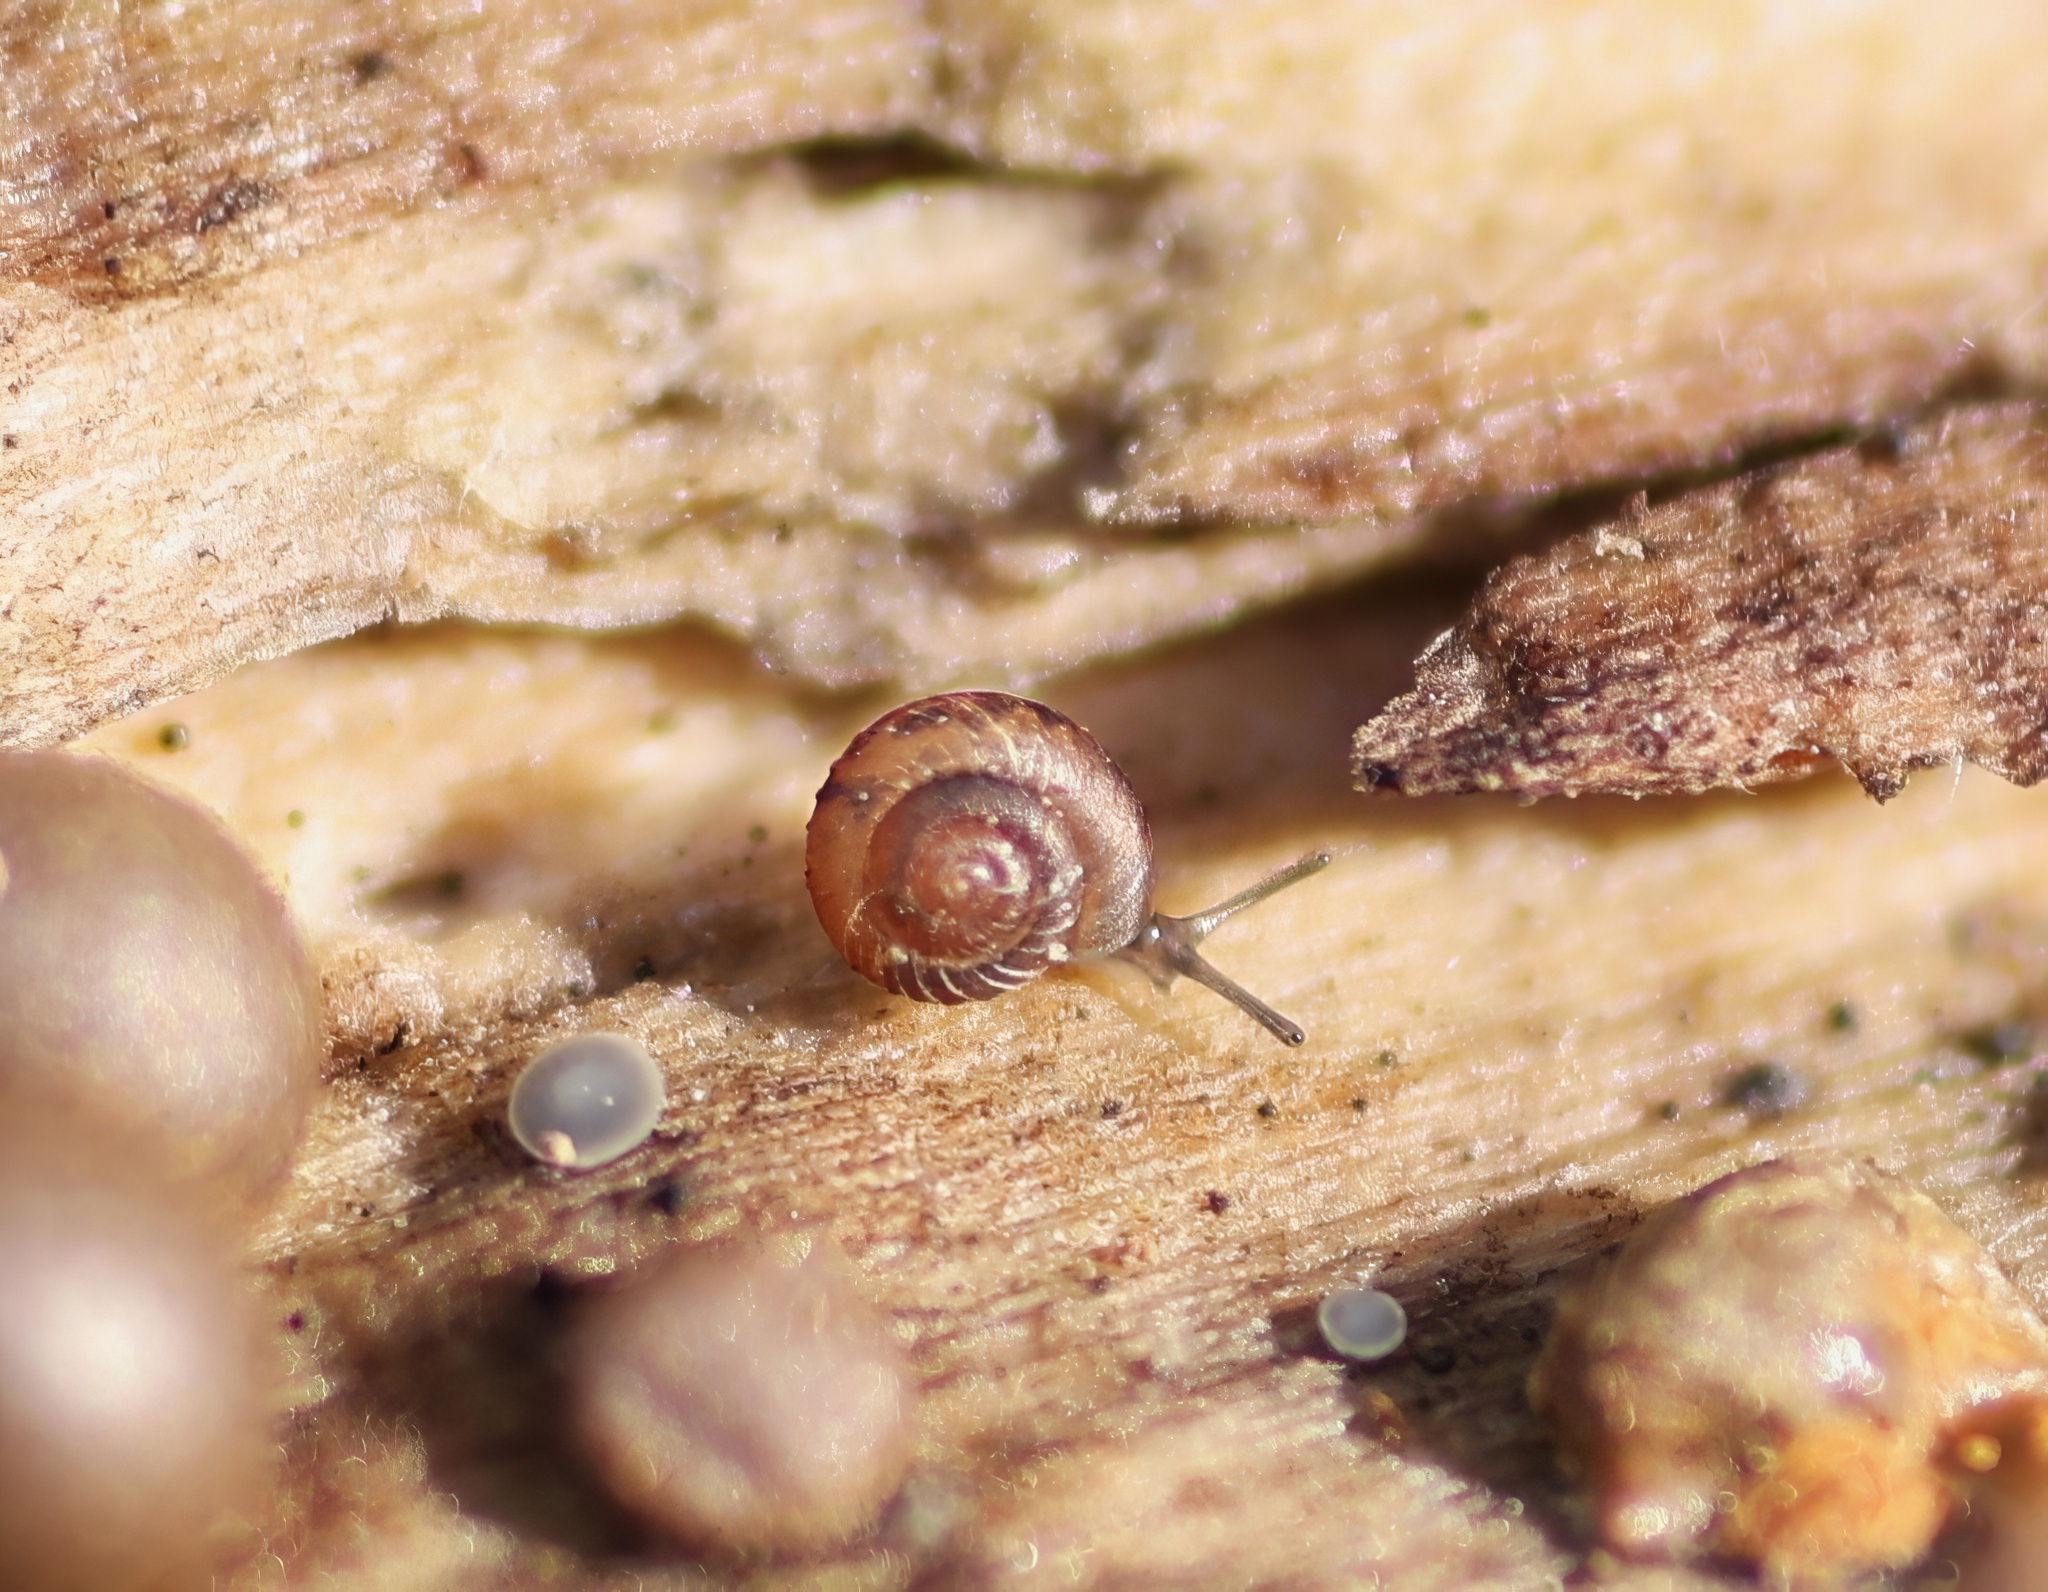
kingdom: Animalia
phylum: Mollusca
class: Gastropoda
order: Stylommatophora
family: Punctidae
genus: Paralaoma
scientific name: Paralaoma servilis
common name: Pinhead spot
